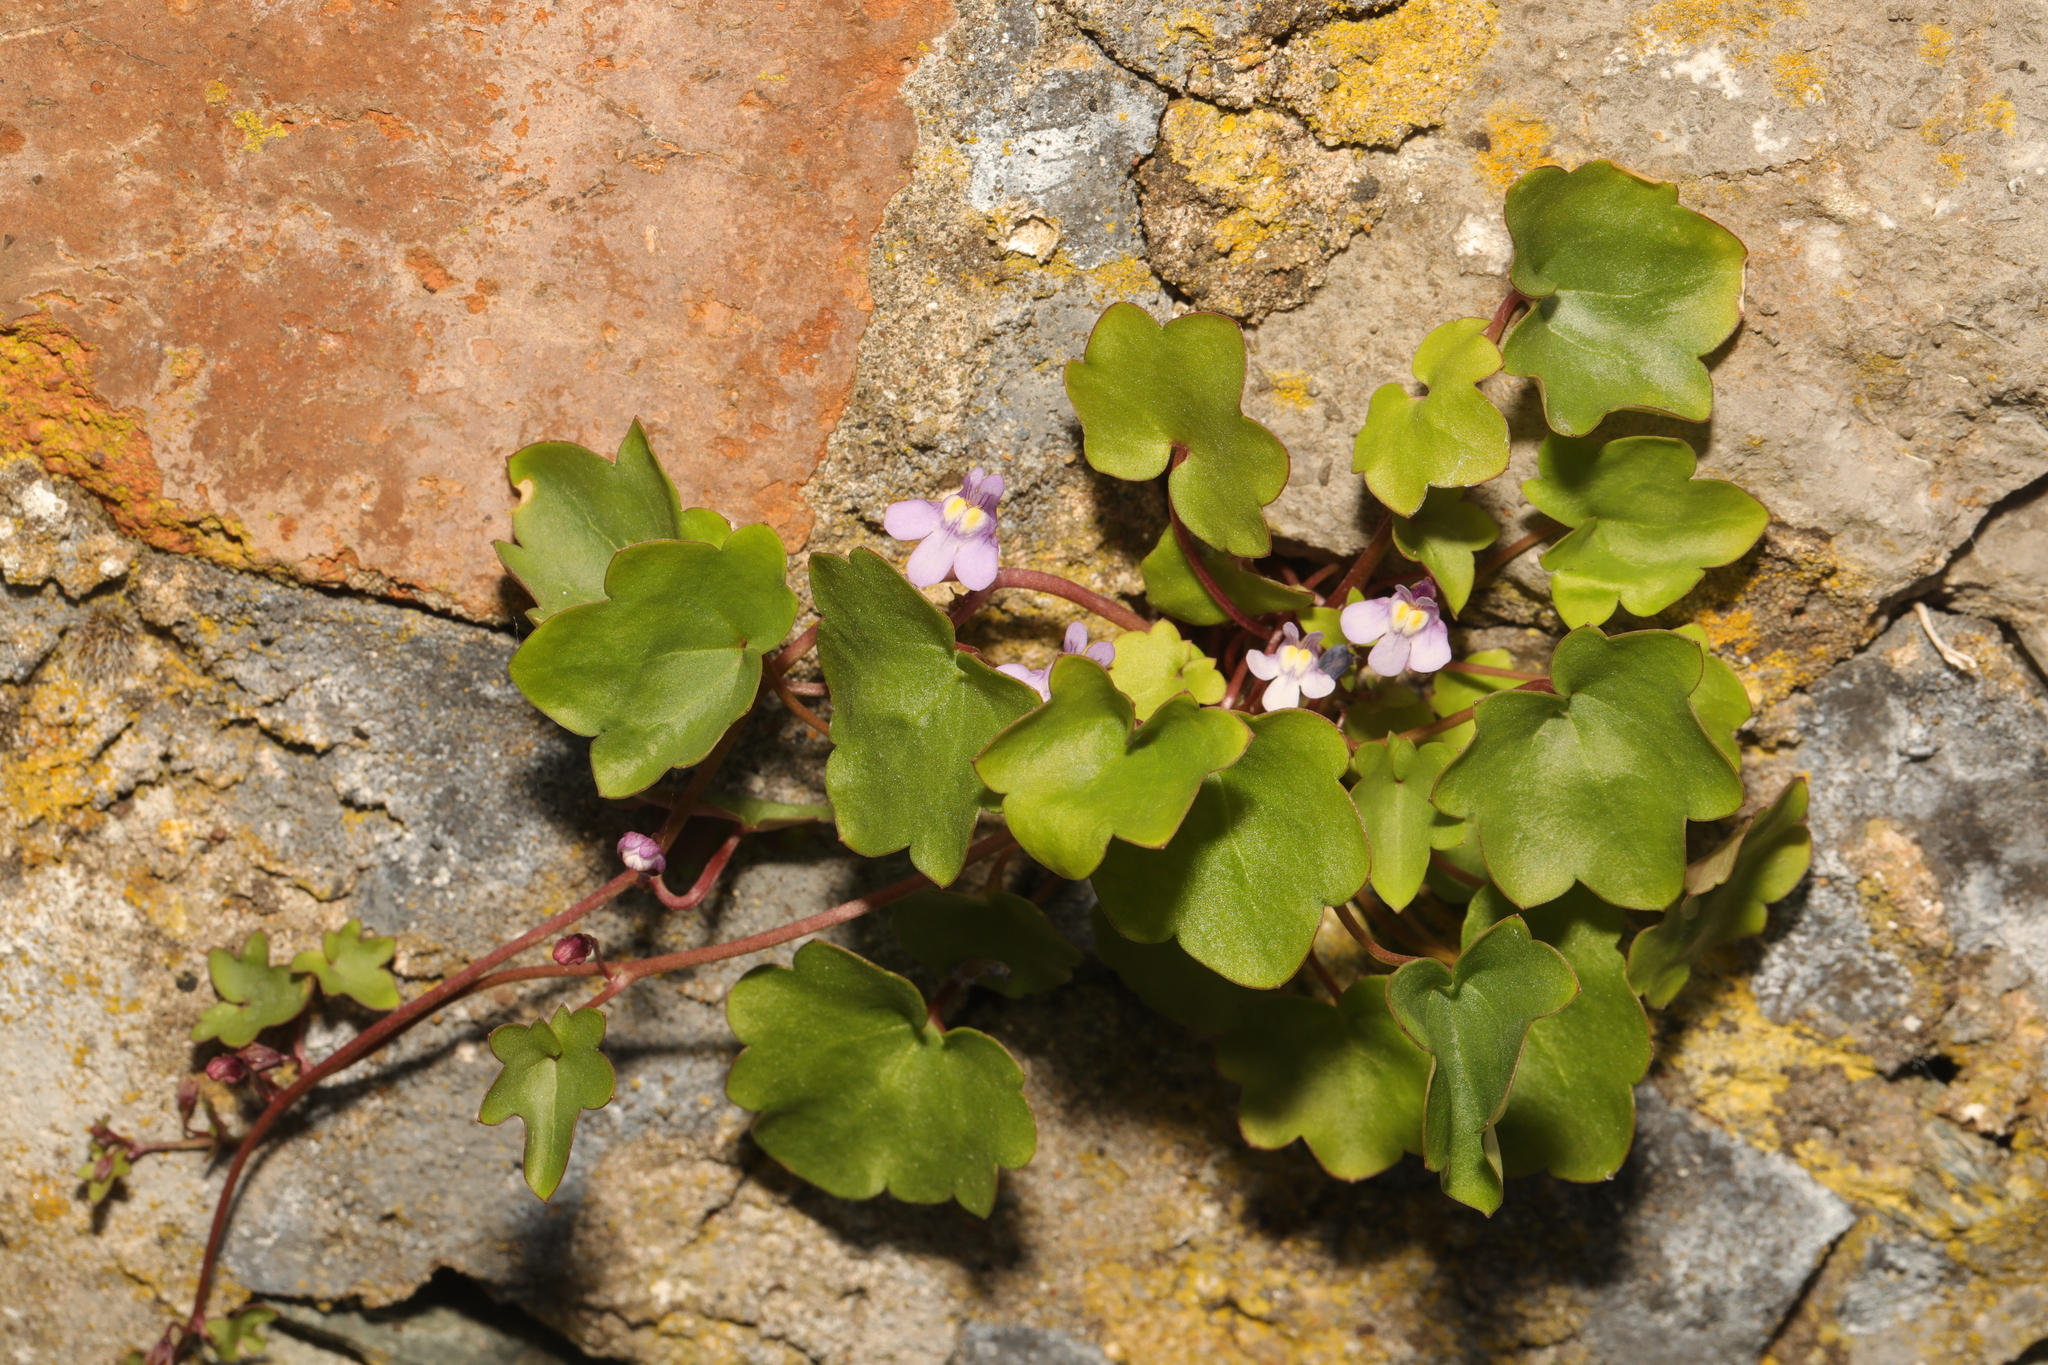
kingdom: Plantae
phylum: Tracheophyta
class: Magnoliopsida
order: Lamiales
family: Plantaginaceae
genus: Cymbalaria
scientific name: Cymbalaria muralis
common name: Ivy-leaved toadflax
